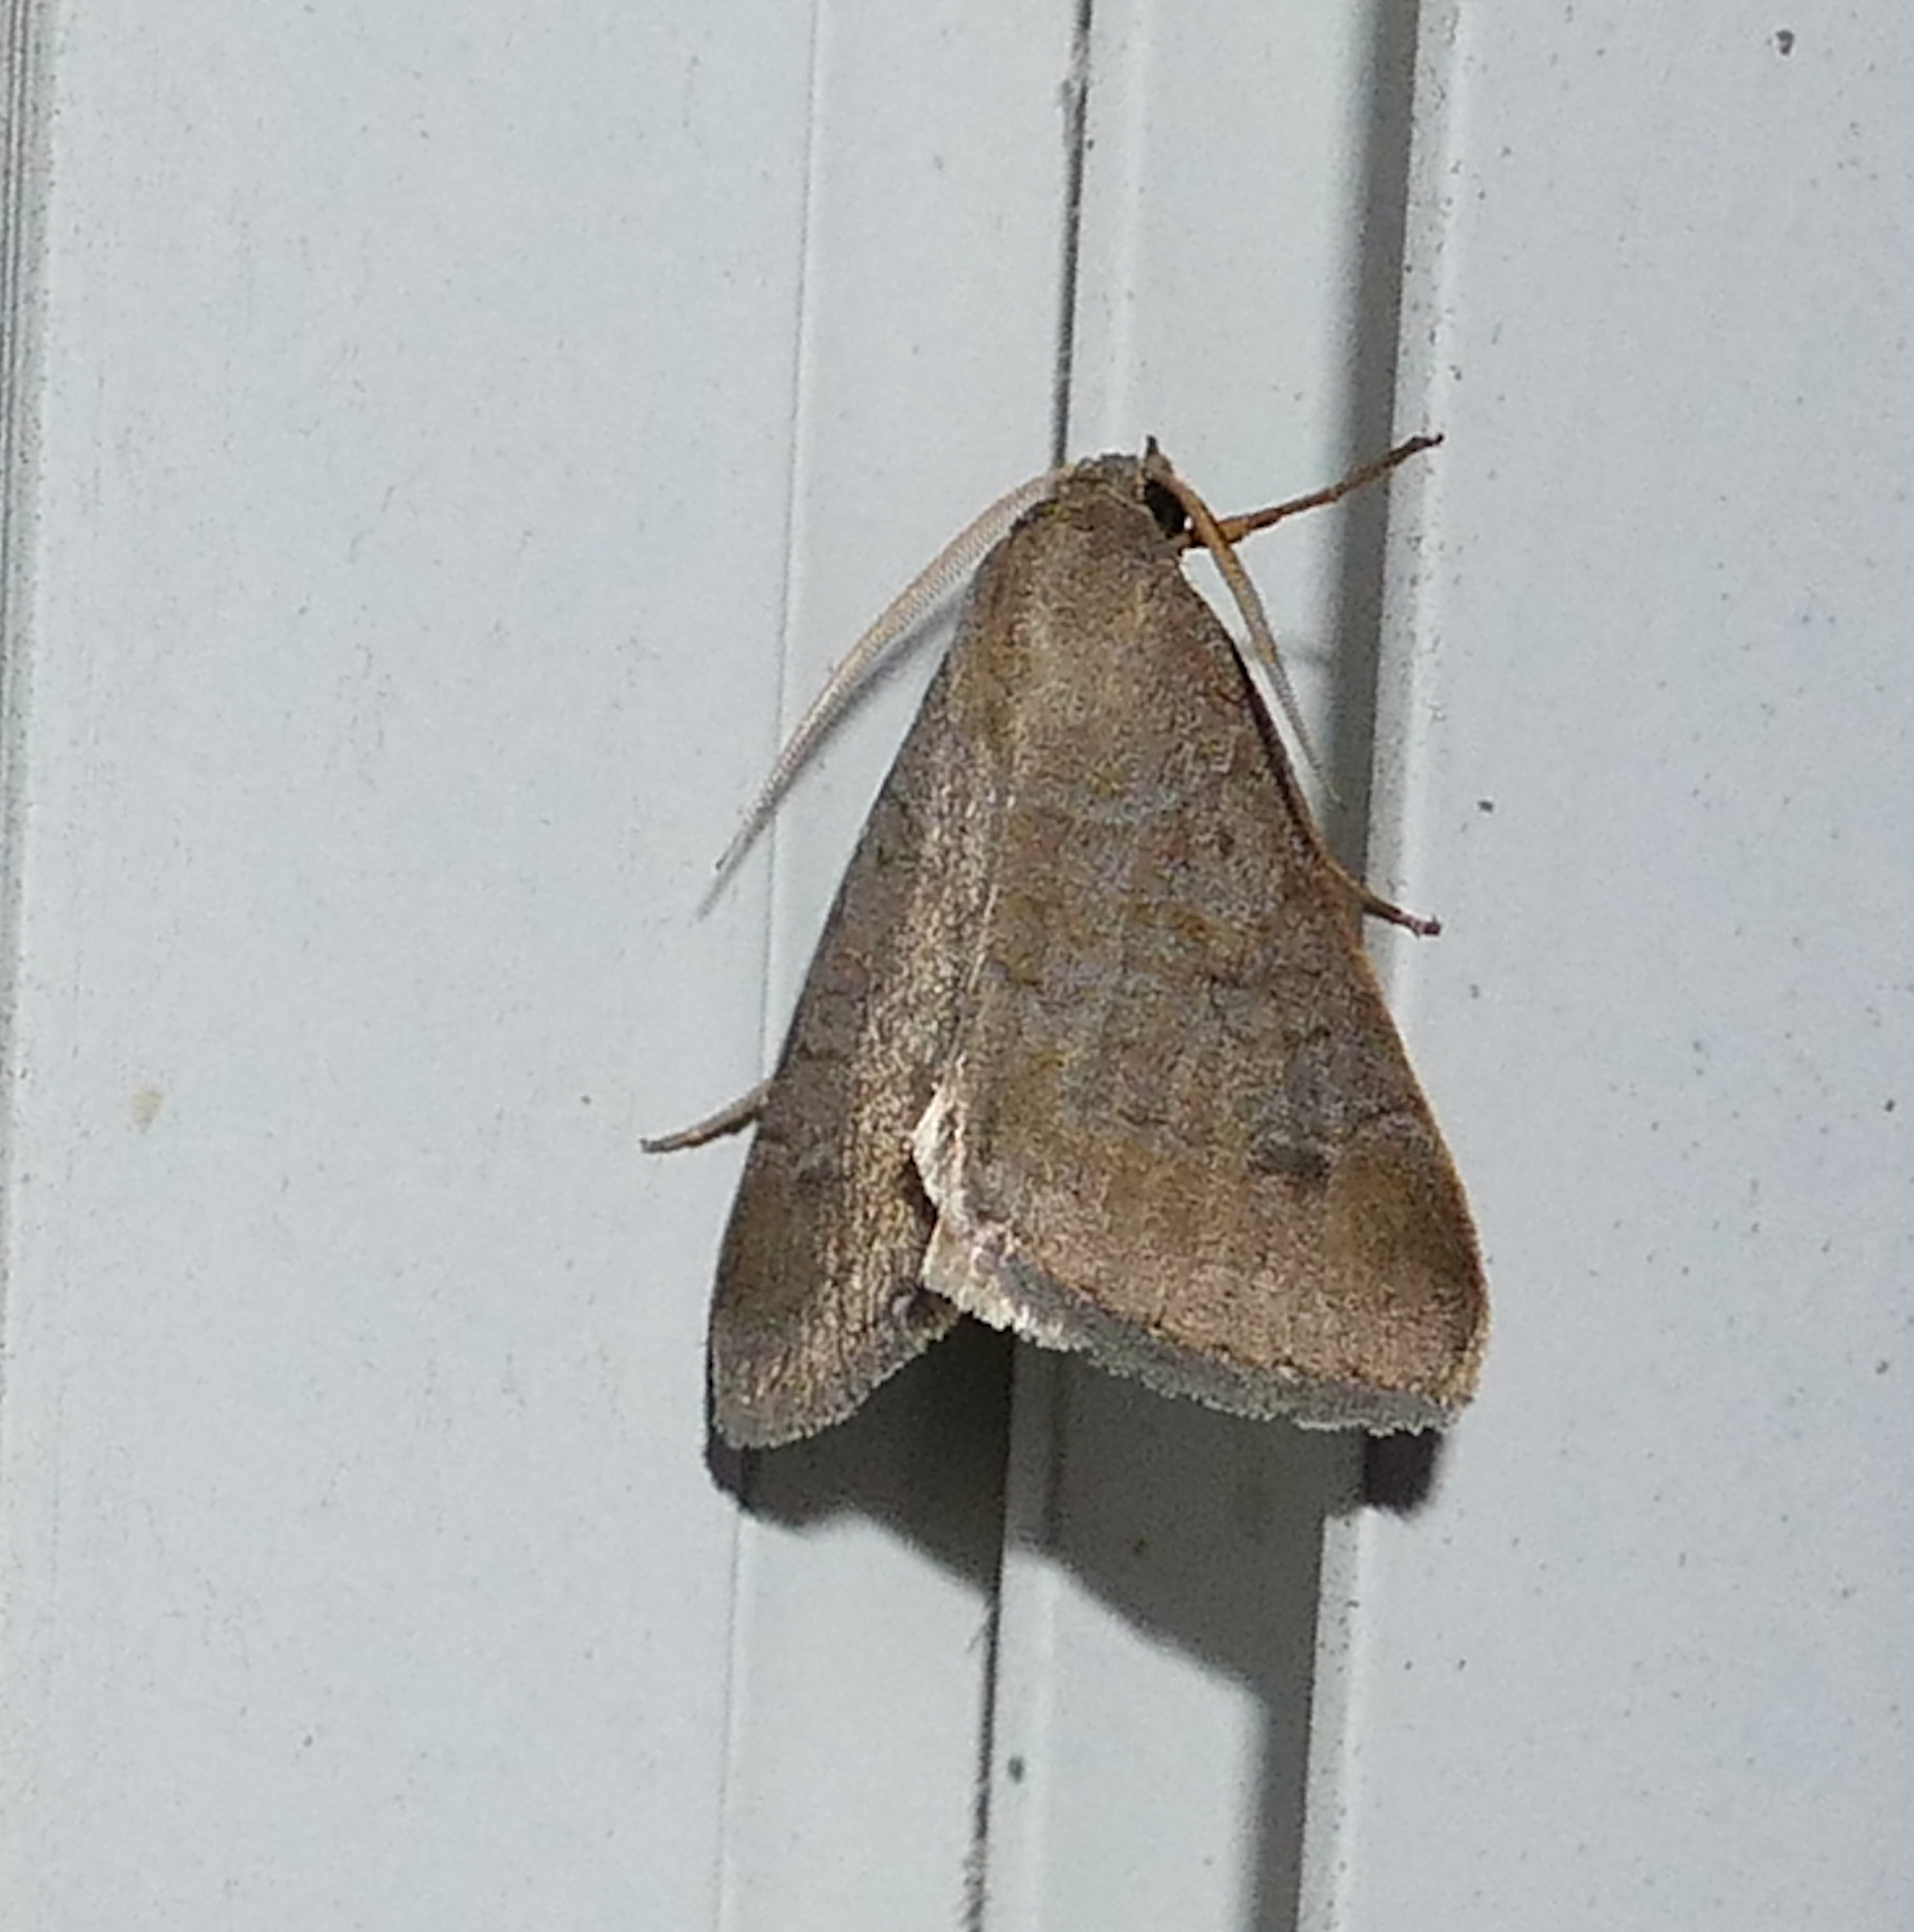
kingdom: Animalia
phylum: Arthropoda
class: Insecta
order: Lepidoptera
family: Erebidae
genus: Caenurgia
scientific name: Caenurgia chloropha
